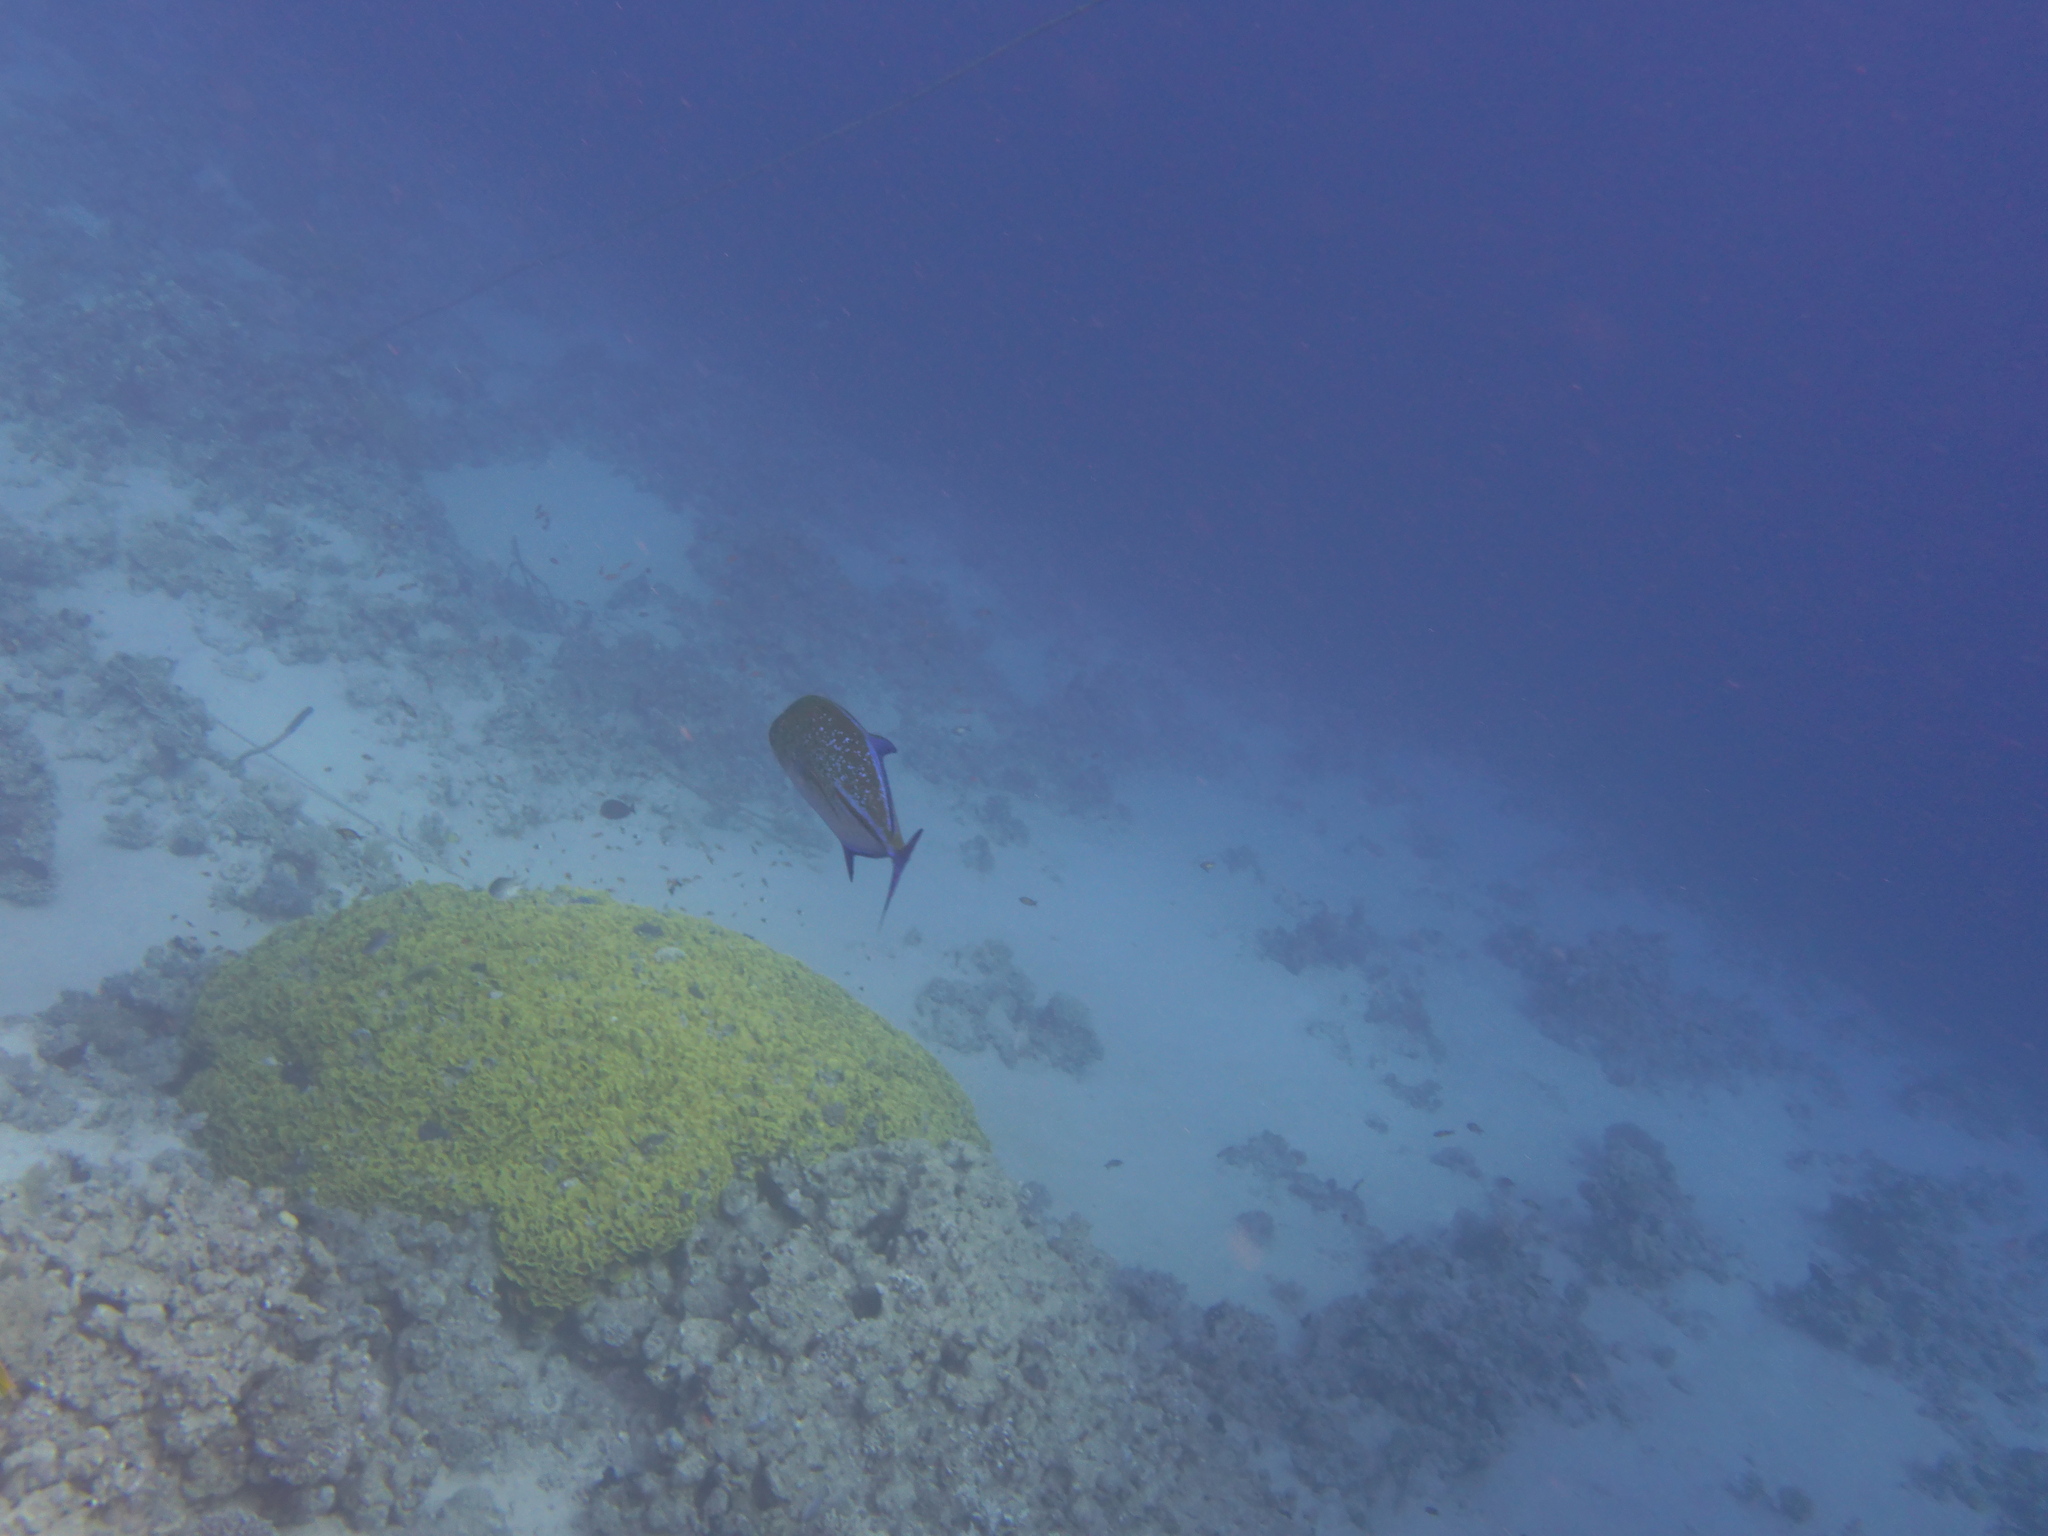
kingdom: Animalia
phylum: Chordata
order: Perciformes
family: Carangidae
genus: Caranx
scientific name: Caranx melampygus
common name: Bluefin trevally
